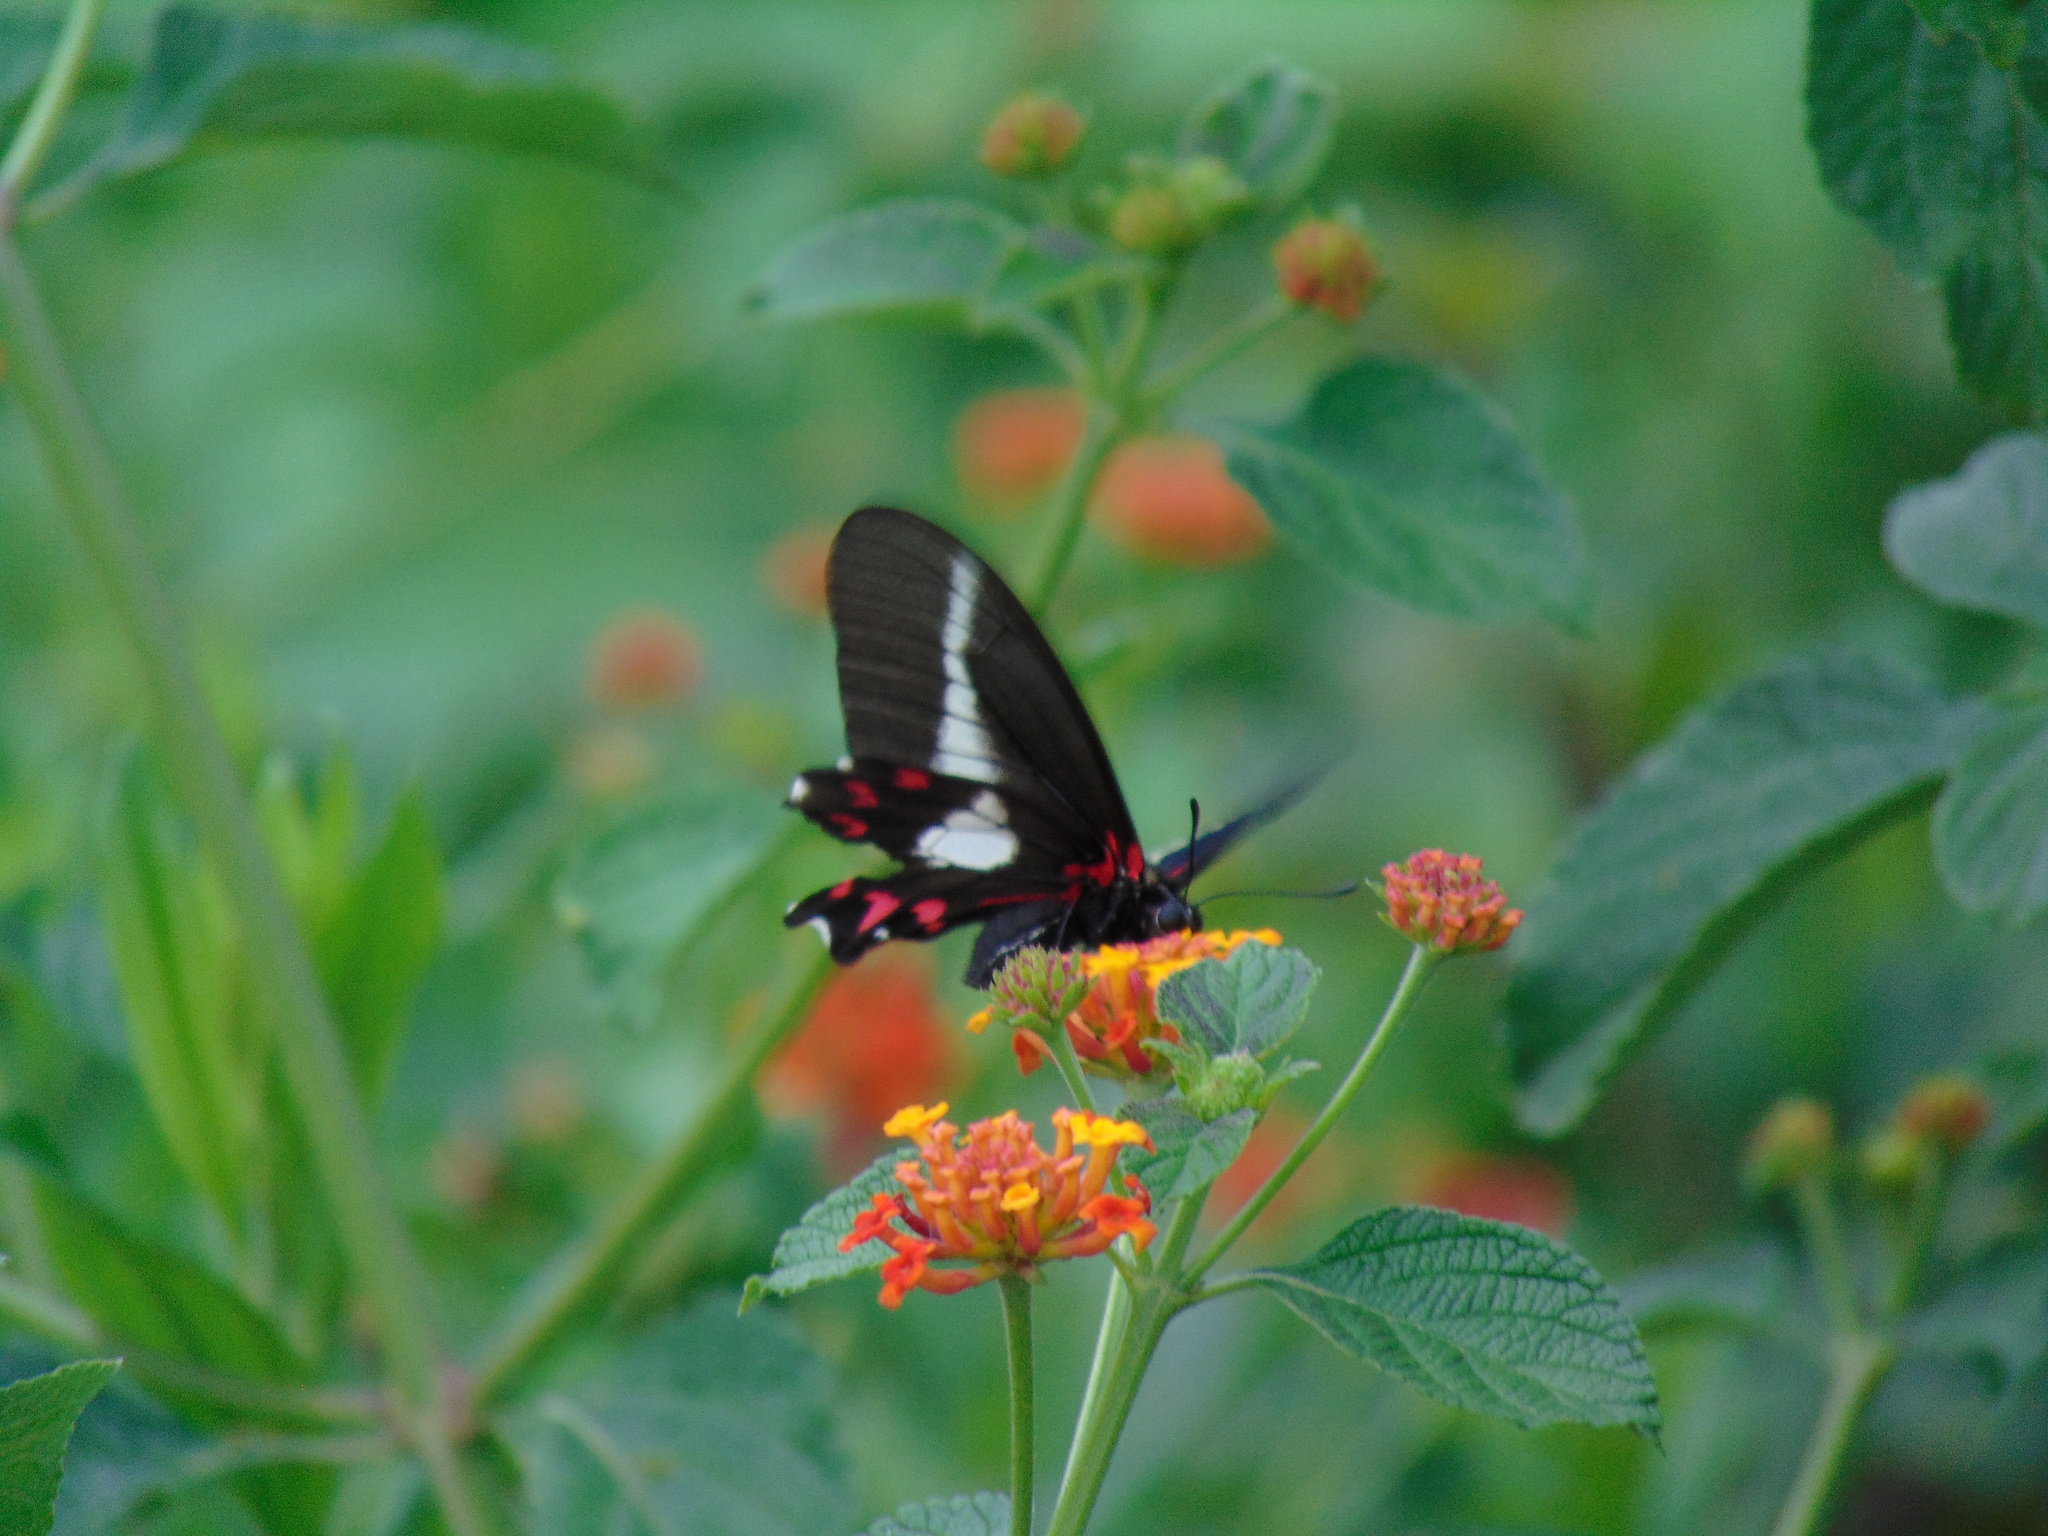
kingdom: Animalia
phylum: Arthropoda
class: Insecta
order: Lepidoptera
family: Papilionidae
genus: Mimoides
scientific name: Mimoides lysithous
